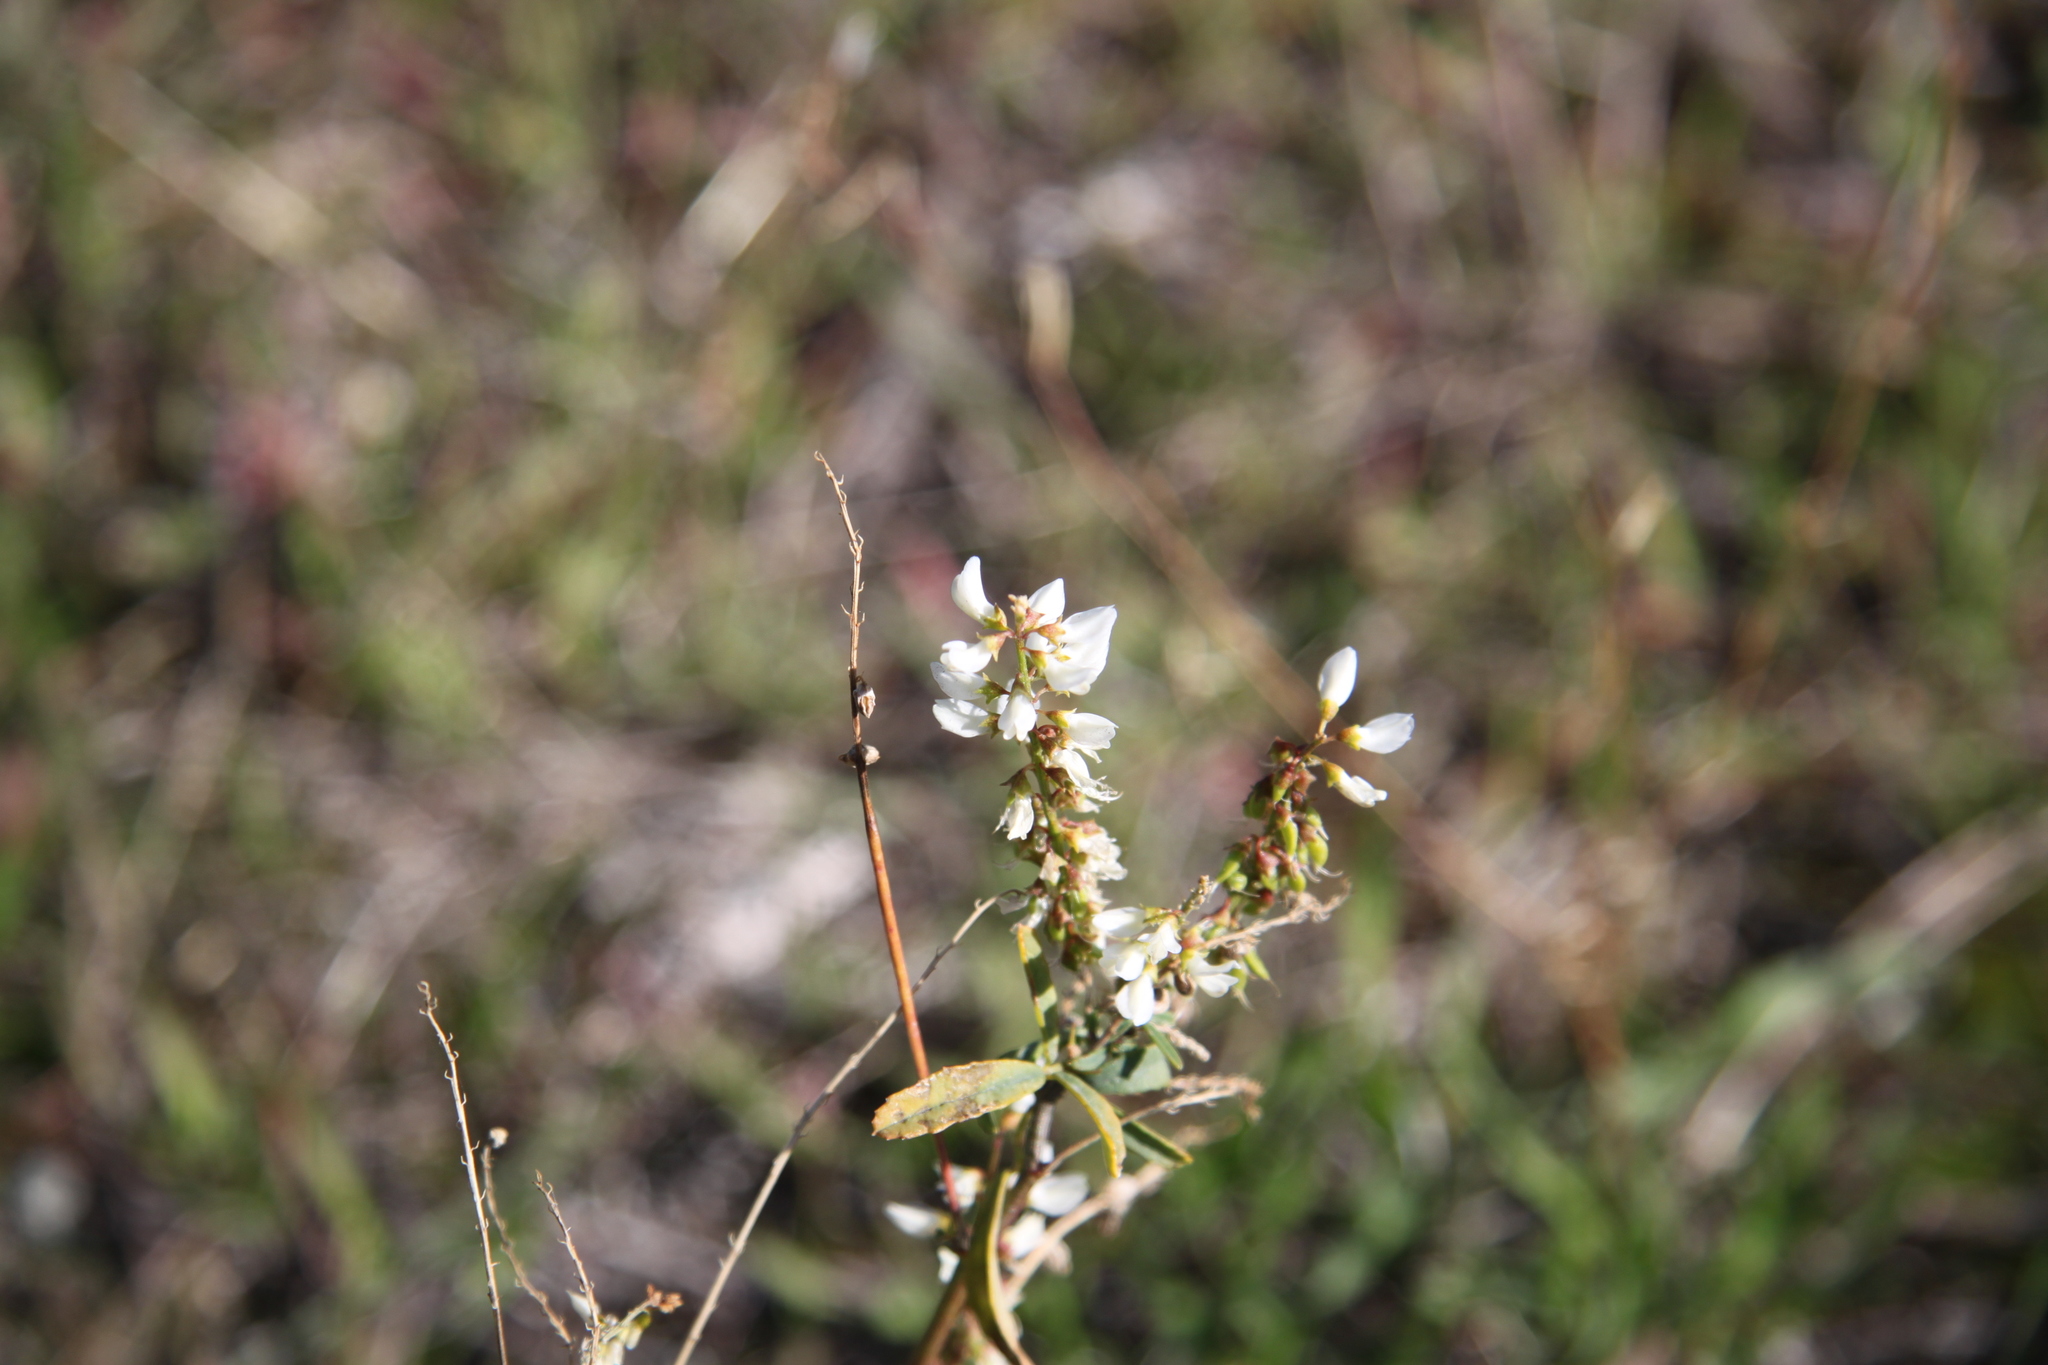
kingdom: Plantae
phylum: Tracheophyta
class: Magnoliopsida
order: Fabales
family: Fabaceae
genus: Melilotus
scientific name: Melilotus albus
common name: White melilot
